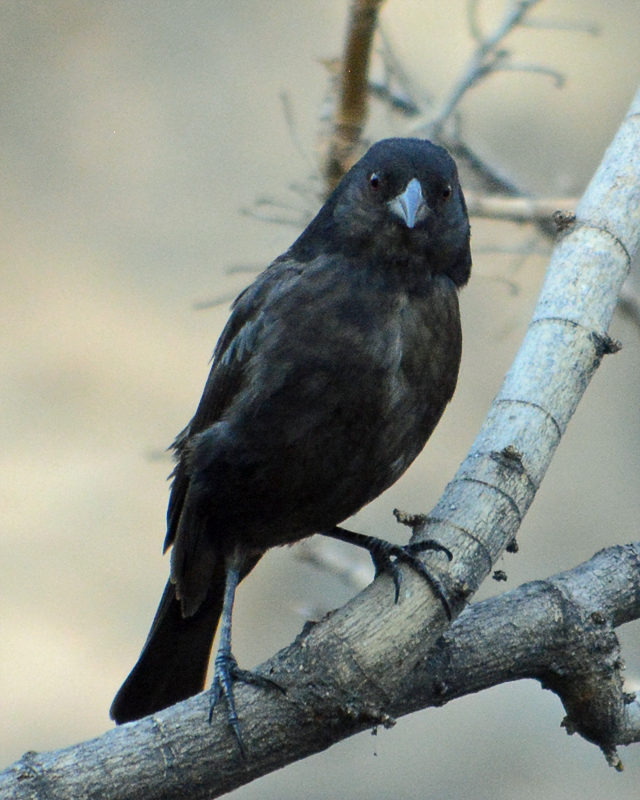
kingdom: Animalia
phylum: Chordata
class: Aves
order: Passeriformes
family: Icteridae
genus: Molothrus
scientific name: Molothrus aeneus
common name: Bronzed cowbird
